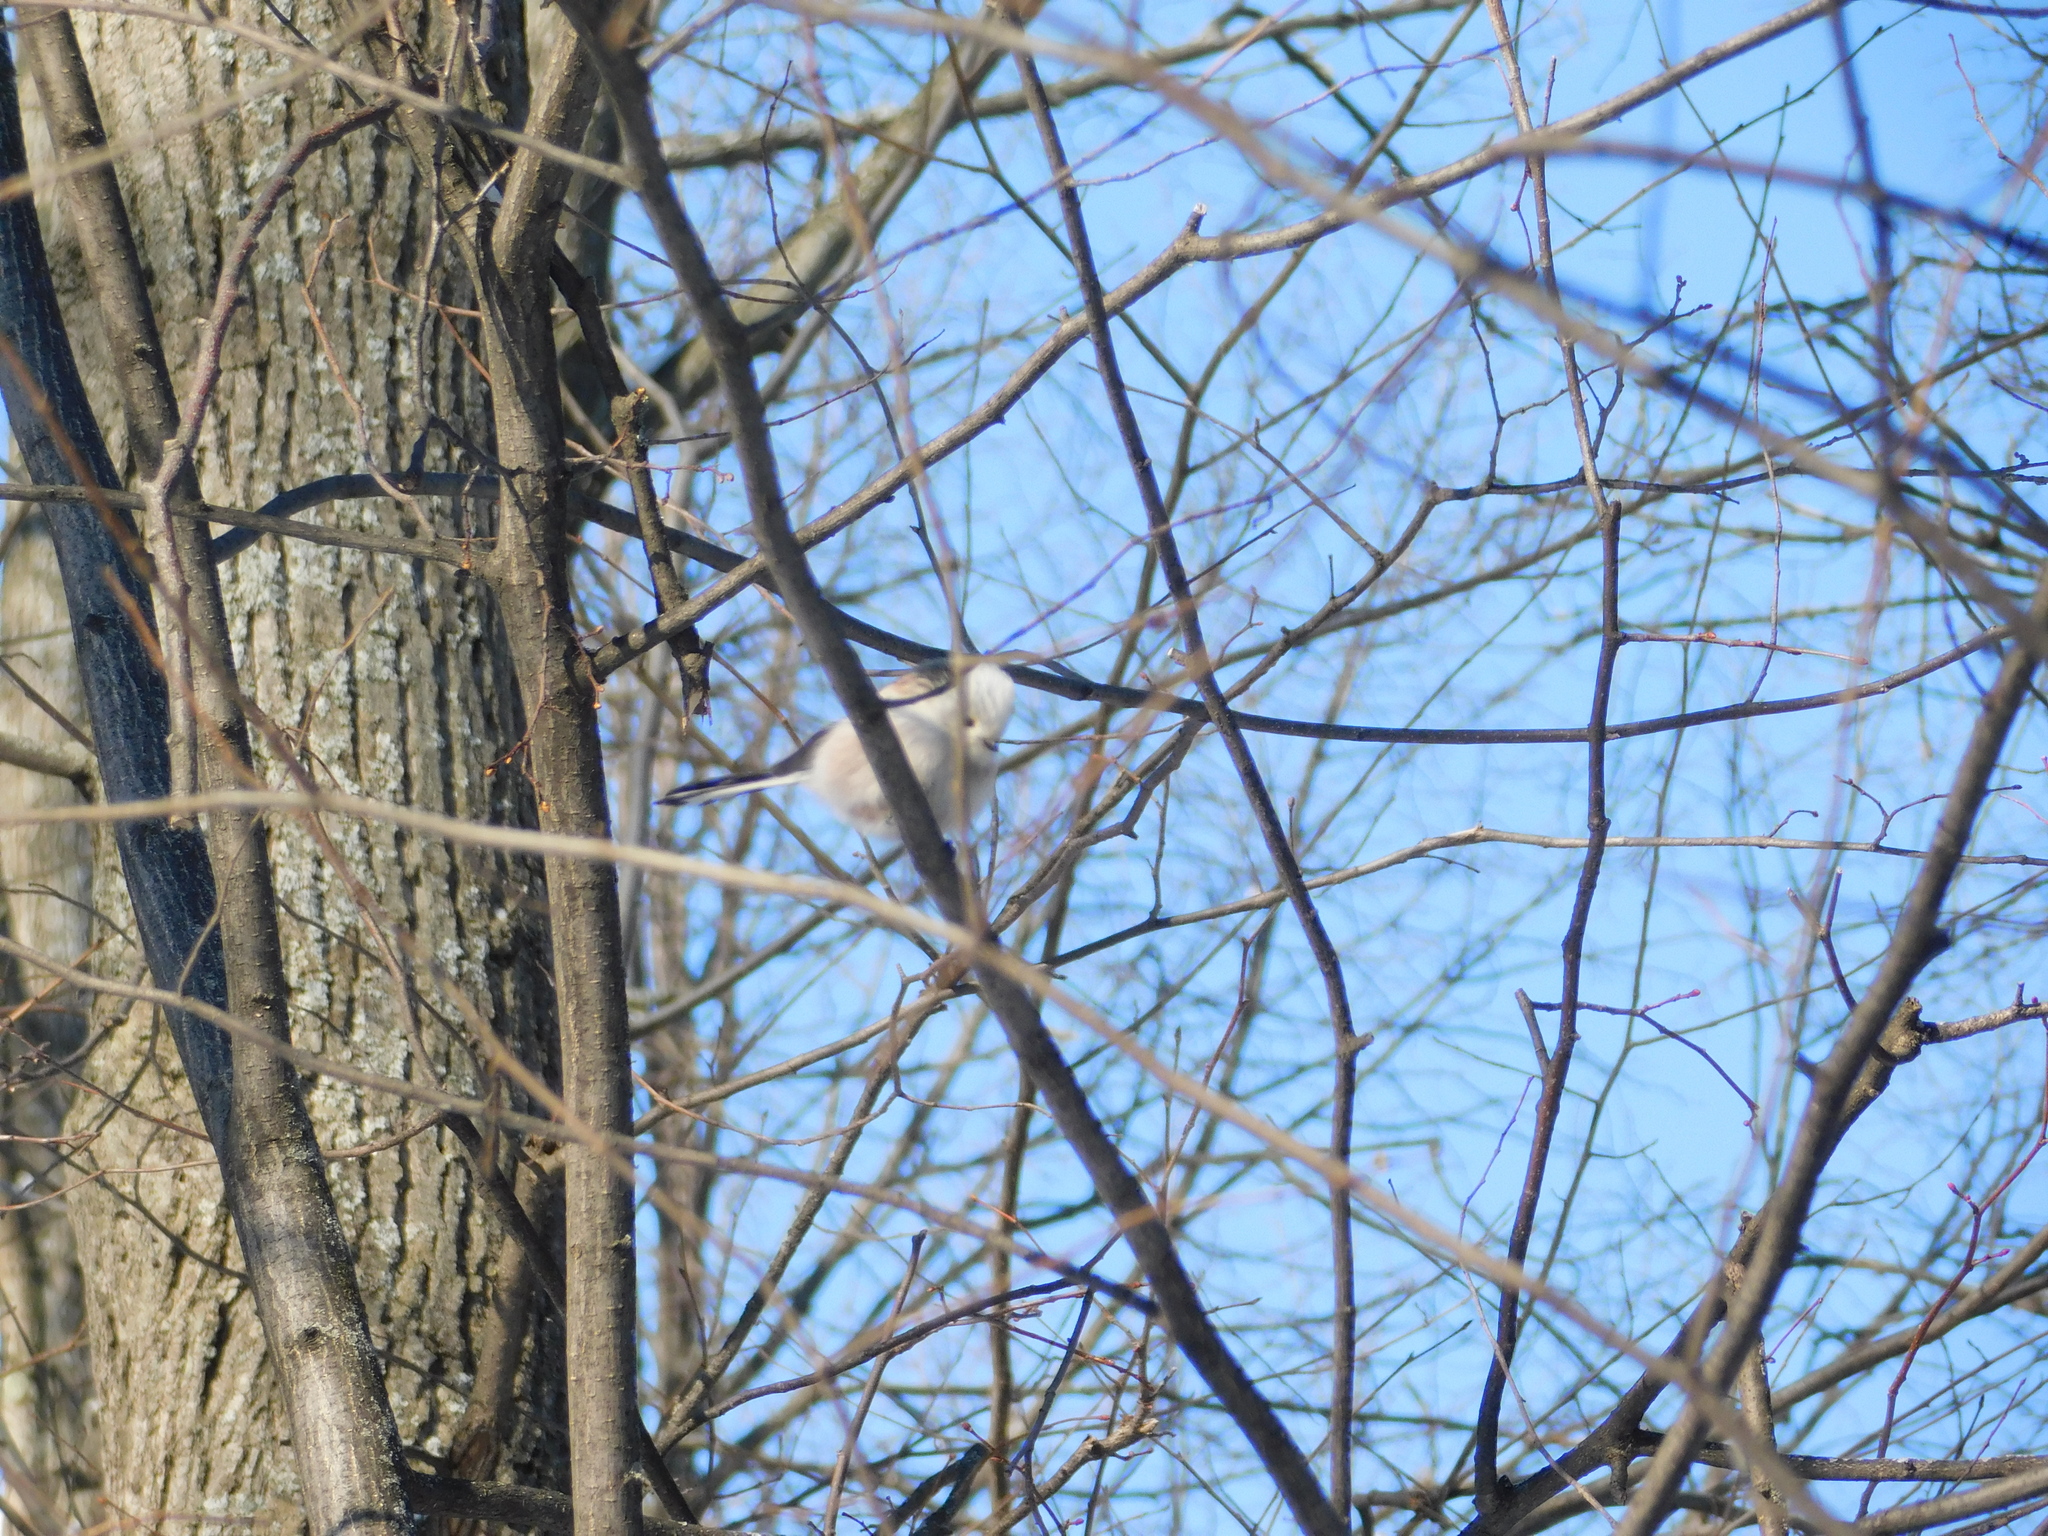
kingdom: Animalia
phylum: Chordata
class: Aves
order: Passeriformes
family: Aegithalidae
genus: Aegithalos
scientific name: Aegithalos caudatus
